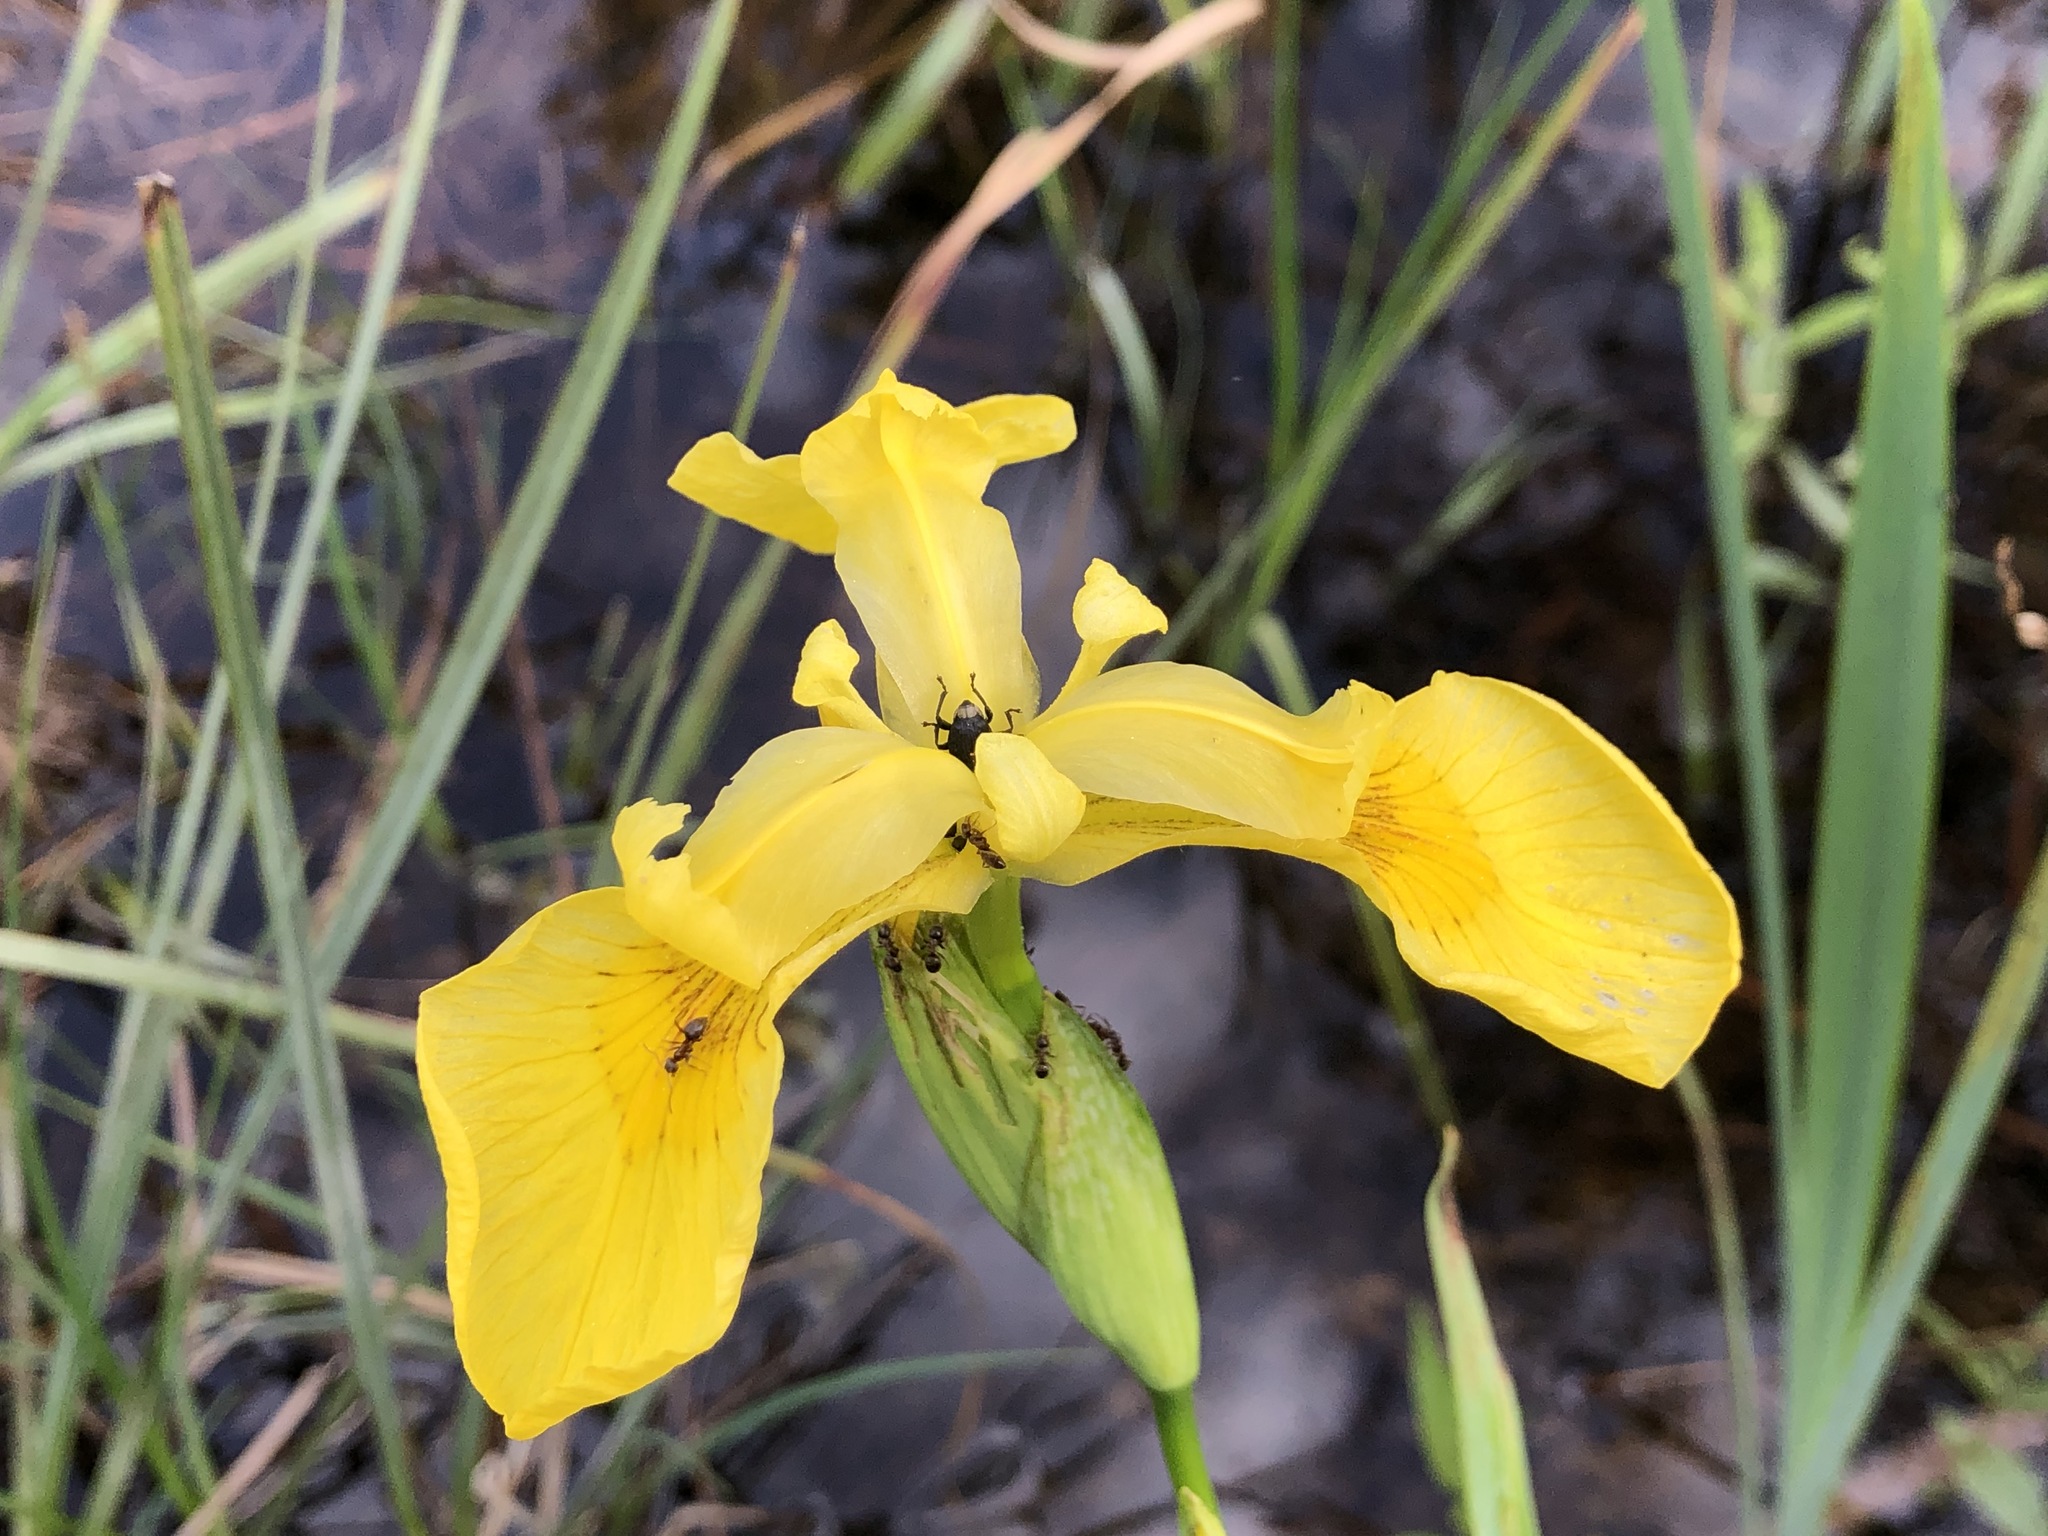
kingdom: Plantae
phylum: Tracheophyta
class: Liliopsida
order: Asparagales
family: Iridaceae
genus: Iris
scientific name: Iris pseudacorus
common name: Yellow flag
